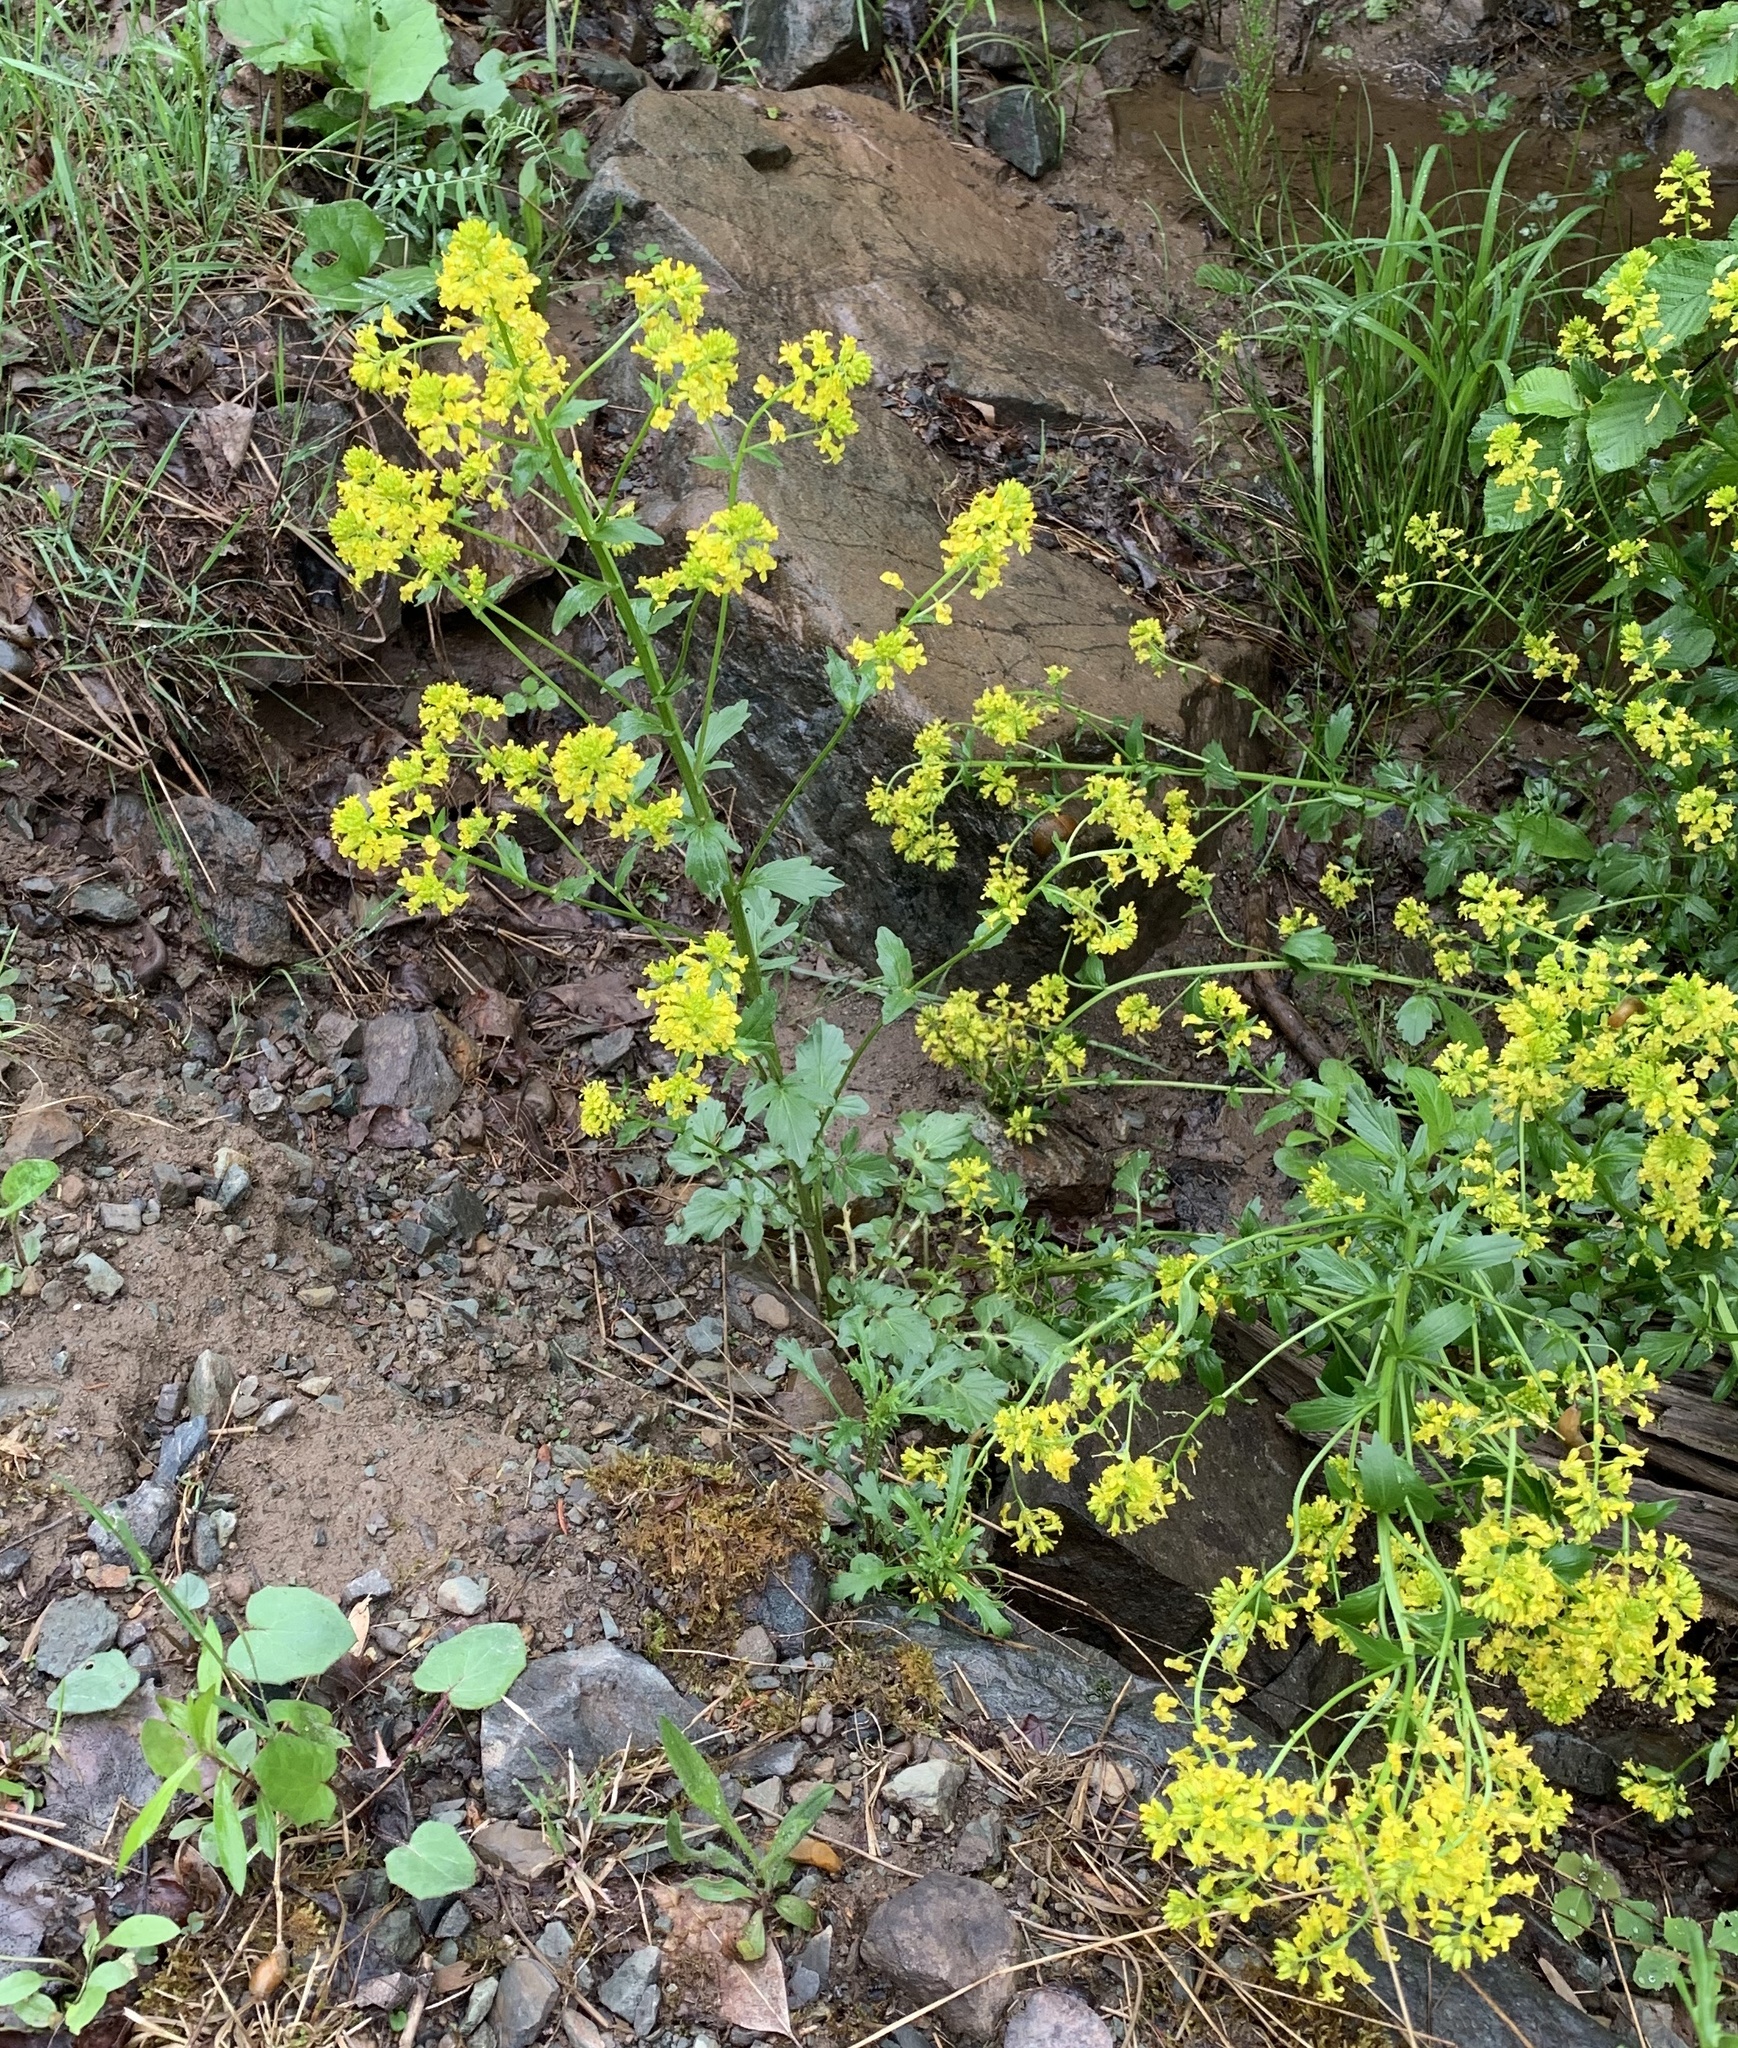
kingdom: Plantae
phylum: Tracheophyta
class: Magnoliopsida
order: Brassicales
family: Brassicaceae
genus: Barbarea
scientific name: Barbarea vulgaris
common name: Cressy-greens
